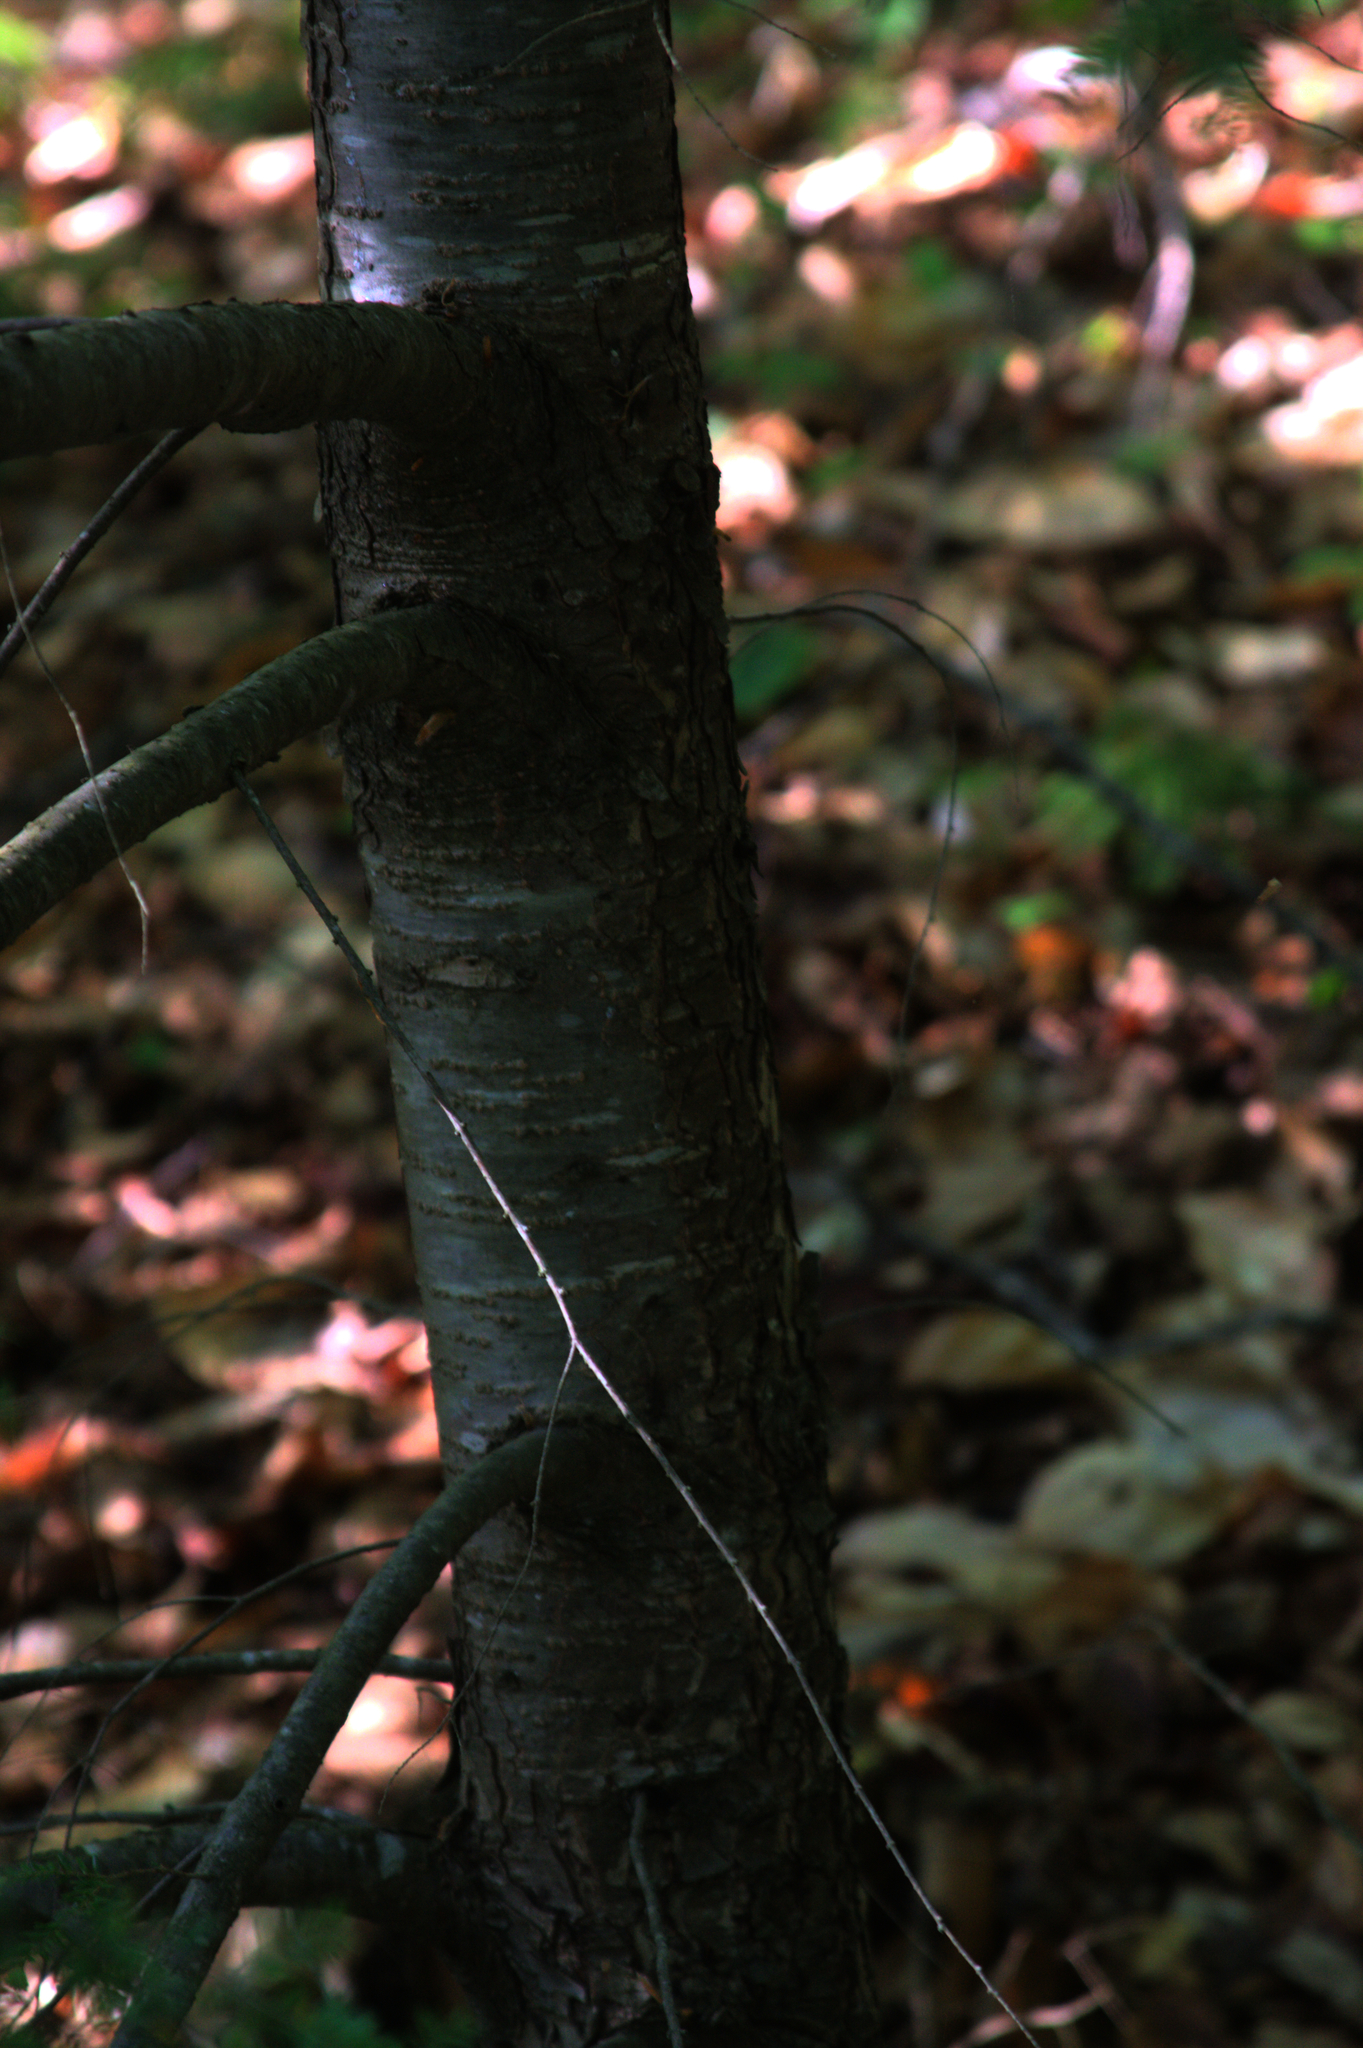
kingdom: Plantae
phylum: Tracheophyta
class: Pinopsida
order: Pinales
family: Pinaceae
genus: Tsuga
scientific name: Tsuga canadensis
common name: Eastern hemlock
